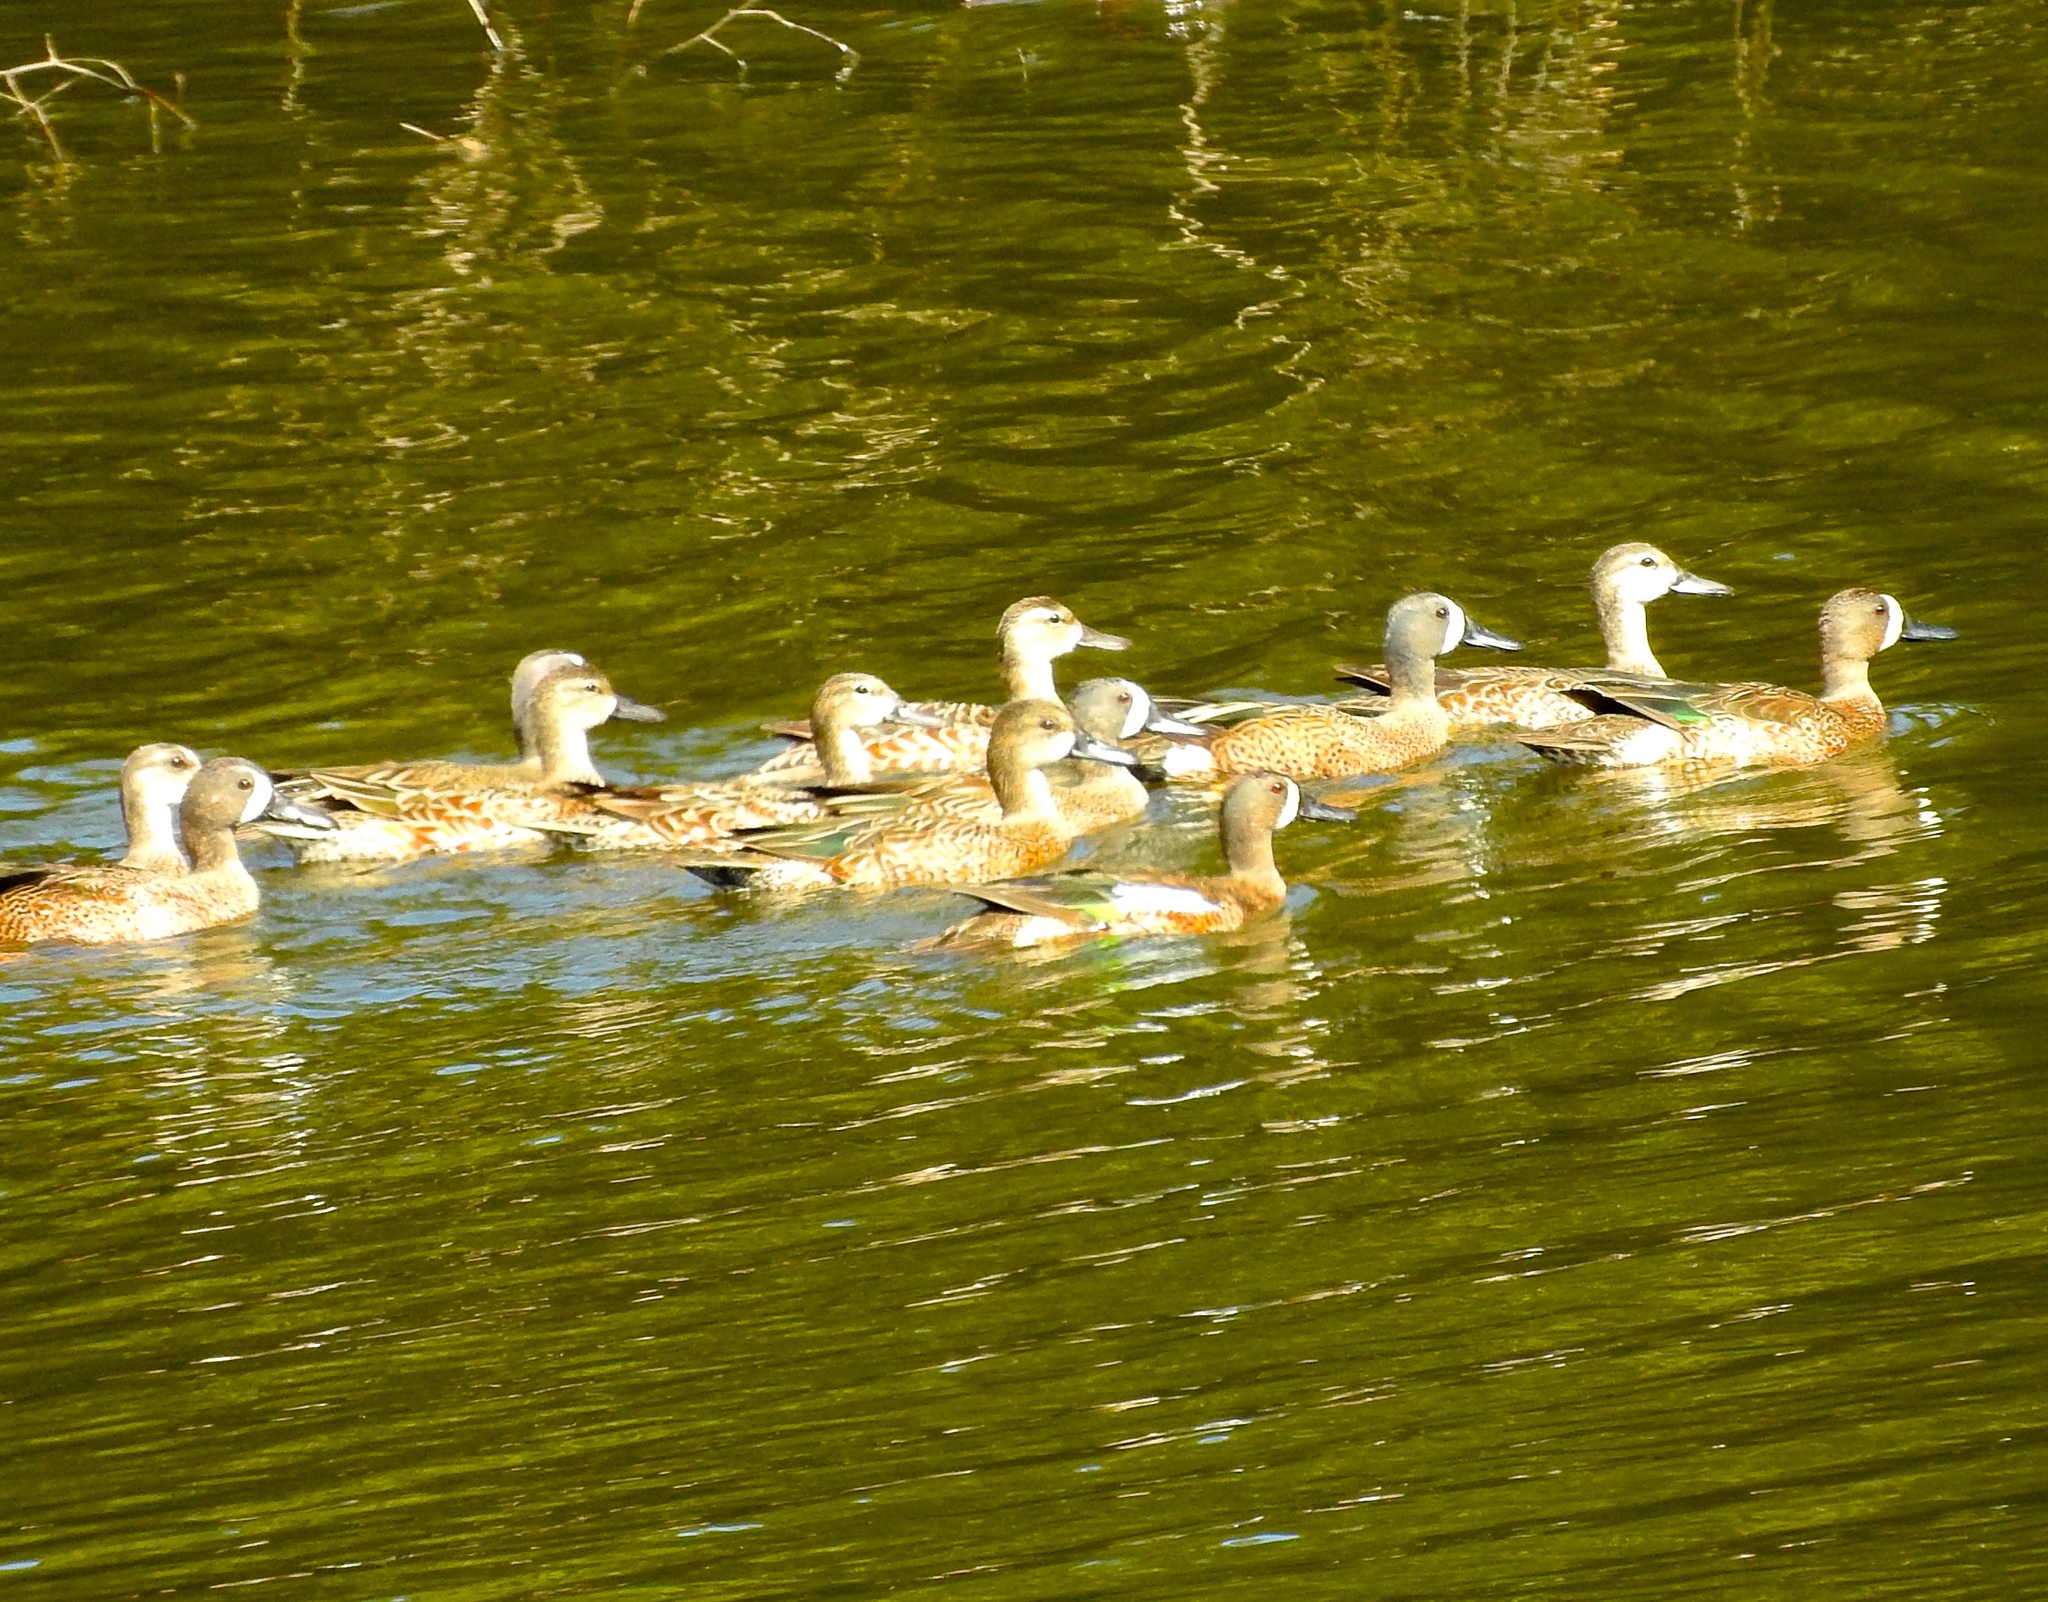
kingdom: Animalia
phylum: Chordata
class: Aves
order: Anseriformes
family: Anatidae
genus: Spatula
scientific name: Spatula discors
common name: Blue-winged teal
